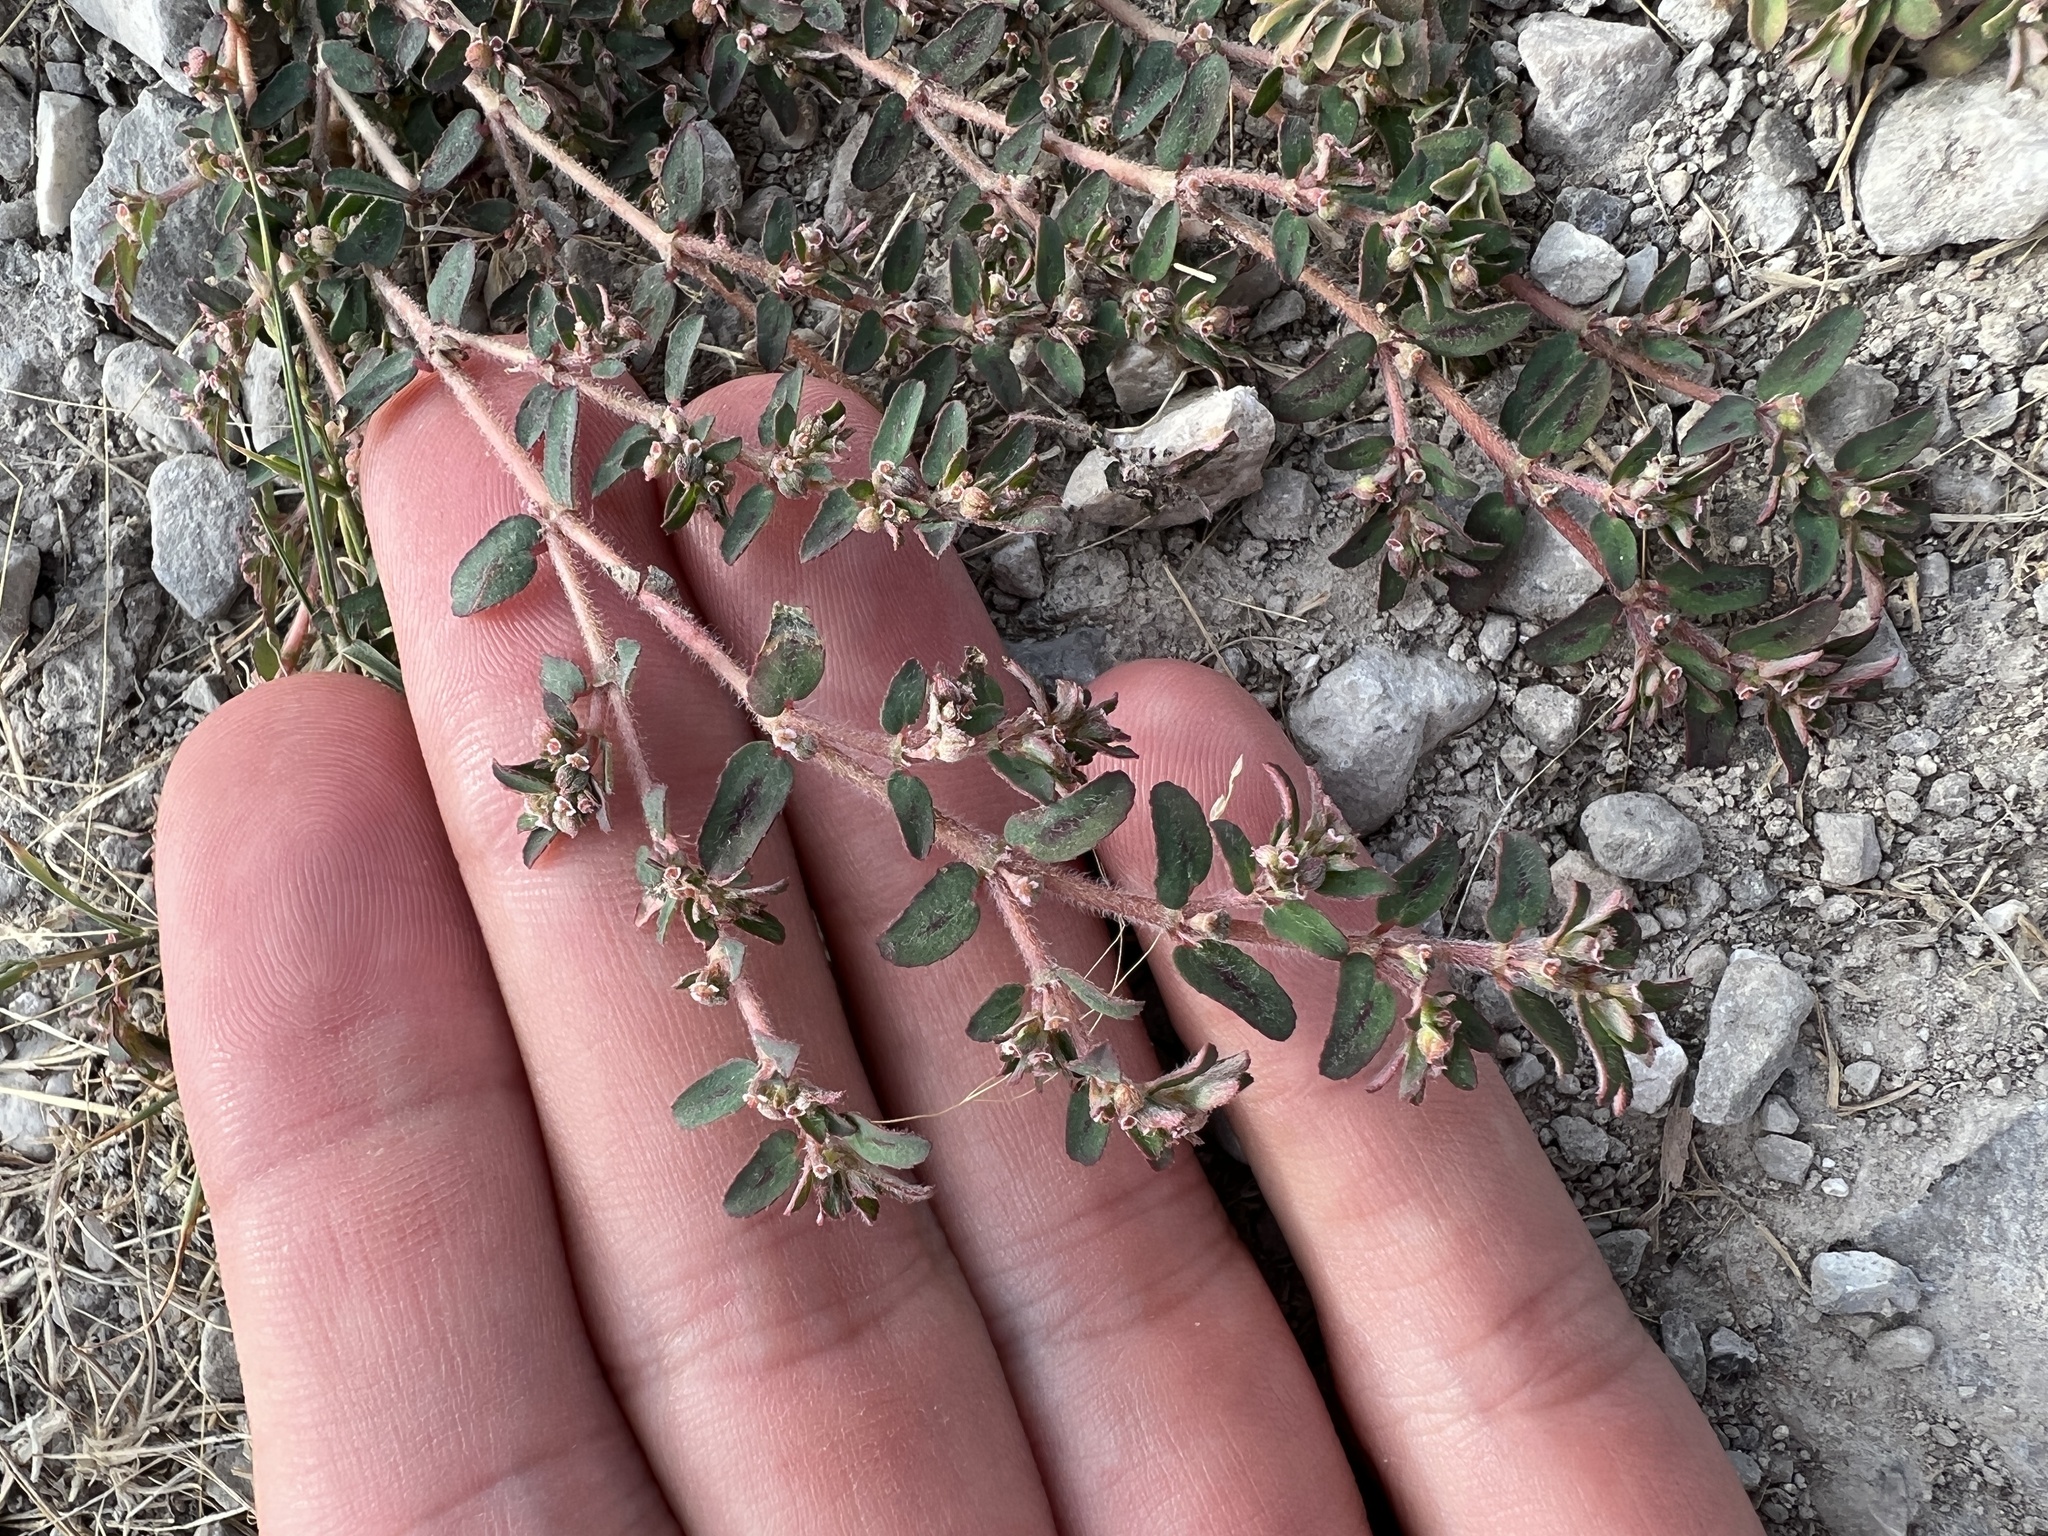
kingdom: Plantae
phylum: Tracheophyta
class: Magnoliopsida
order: Malpighiales
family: Euphorbiaceae
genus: Euphorbia
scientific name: Euphorbia maculata
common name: Spotted spurge
